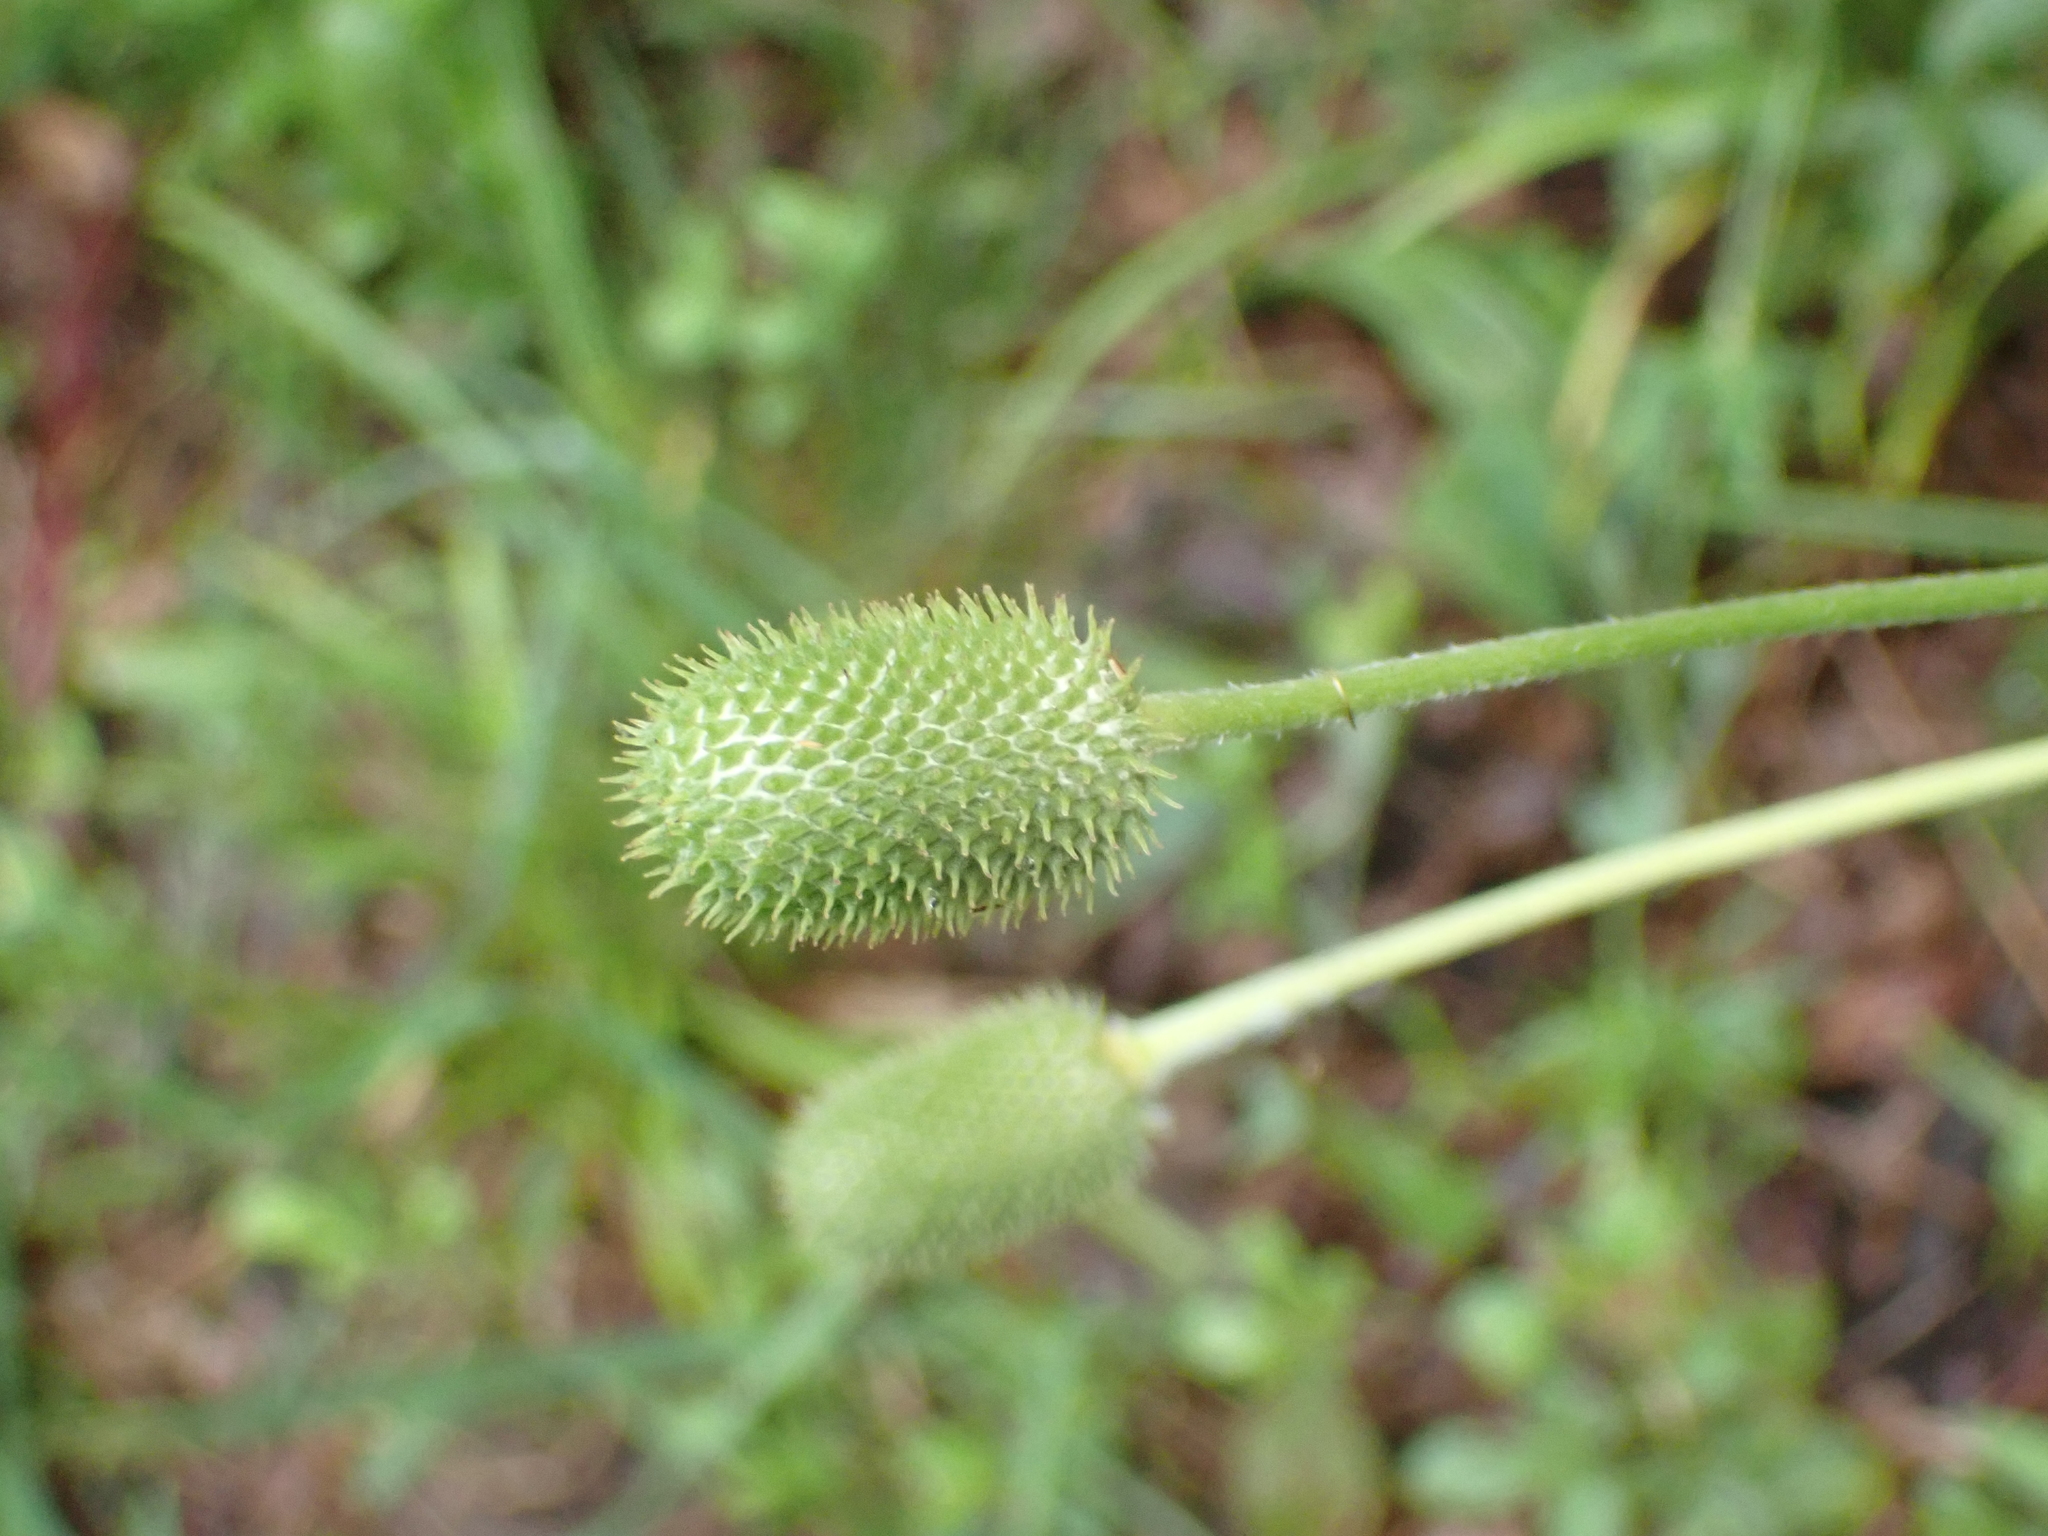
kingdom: Plantae
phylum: Tracheophyta
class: Magnoliopsida
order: Ranunculales
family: Ranunculaceae
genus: Anemone
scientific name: Anemone virginiana
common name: Tall anemone
